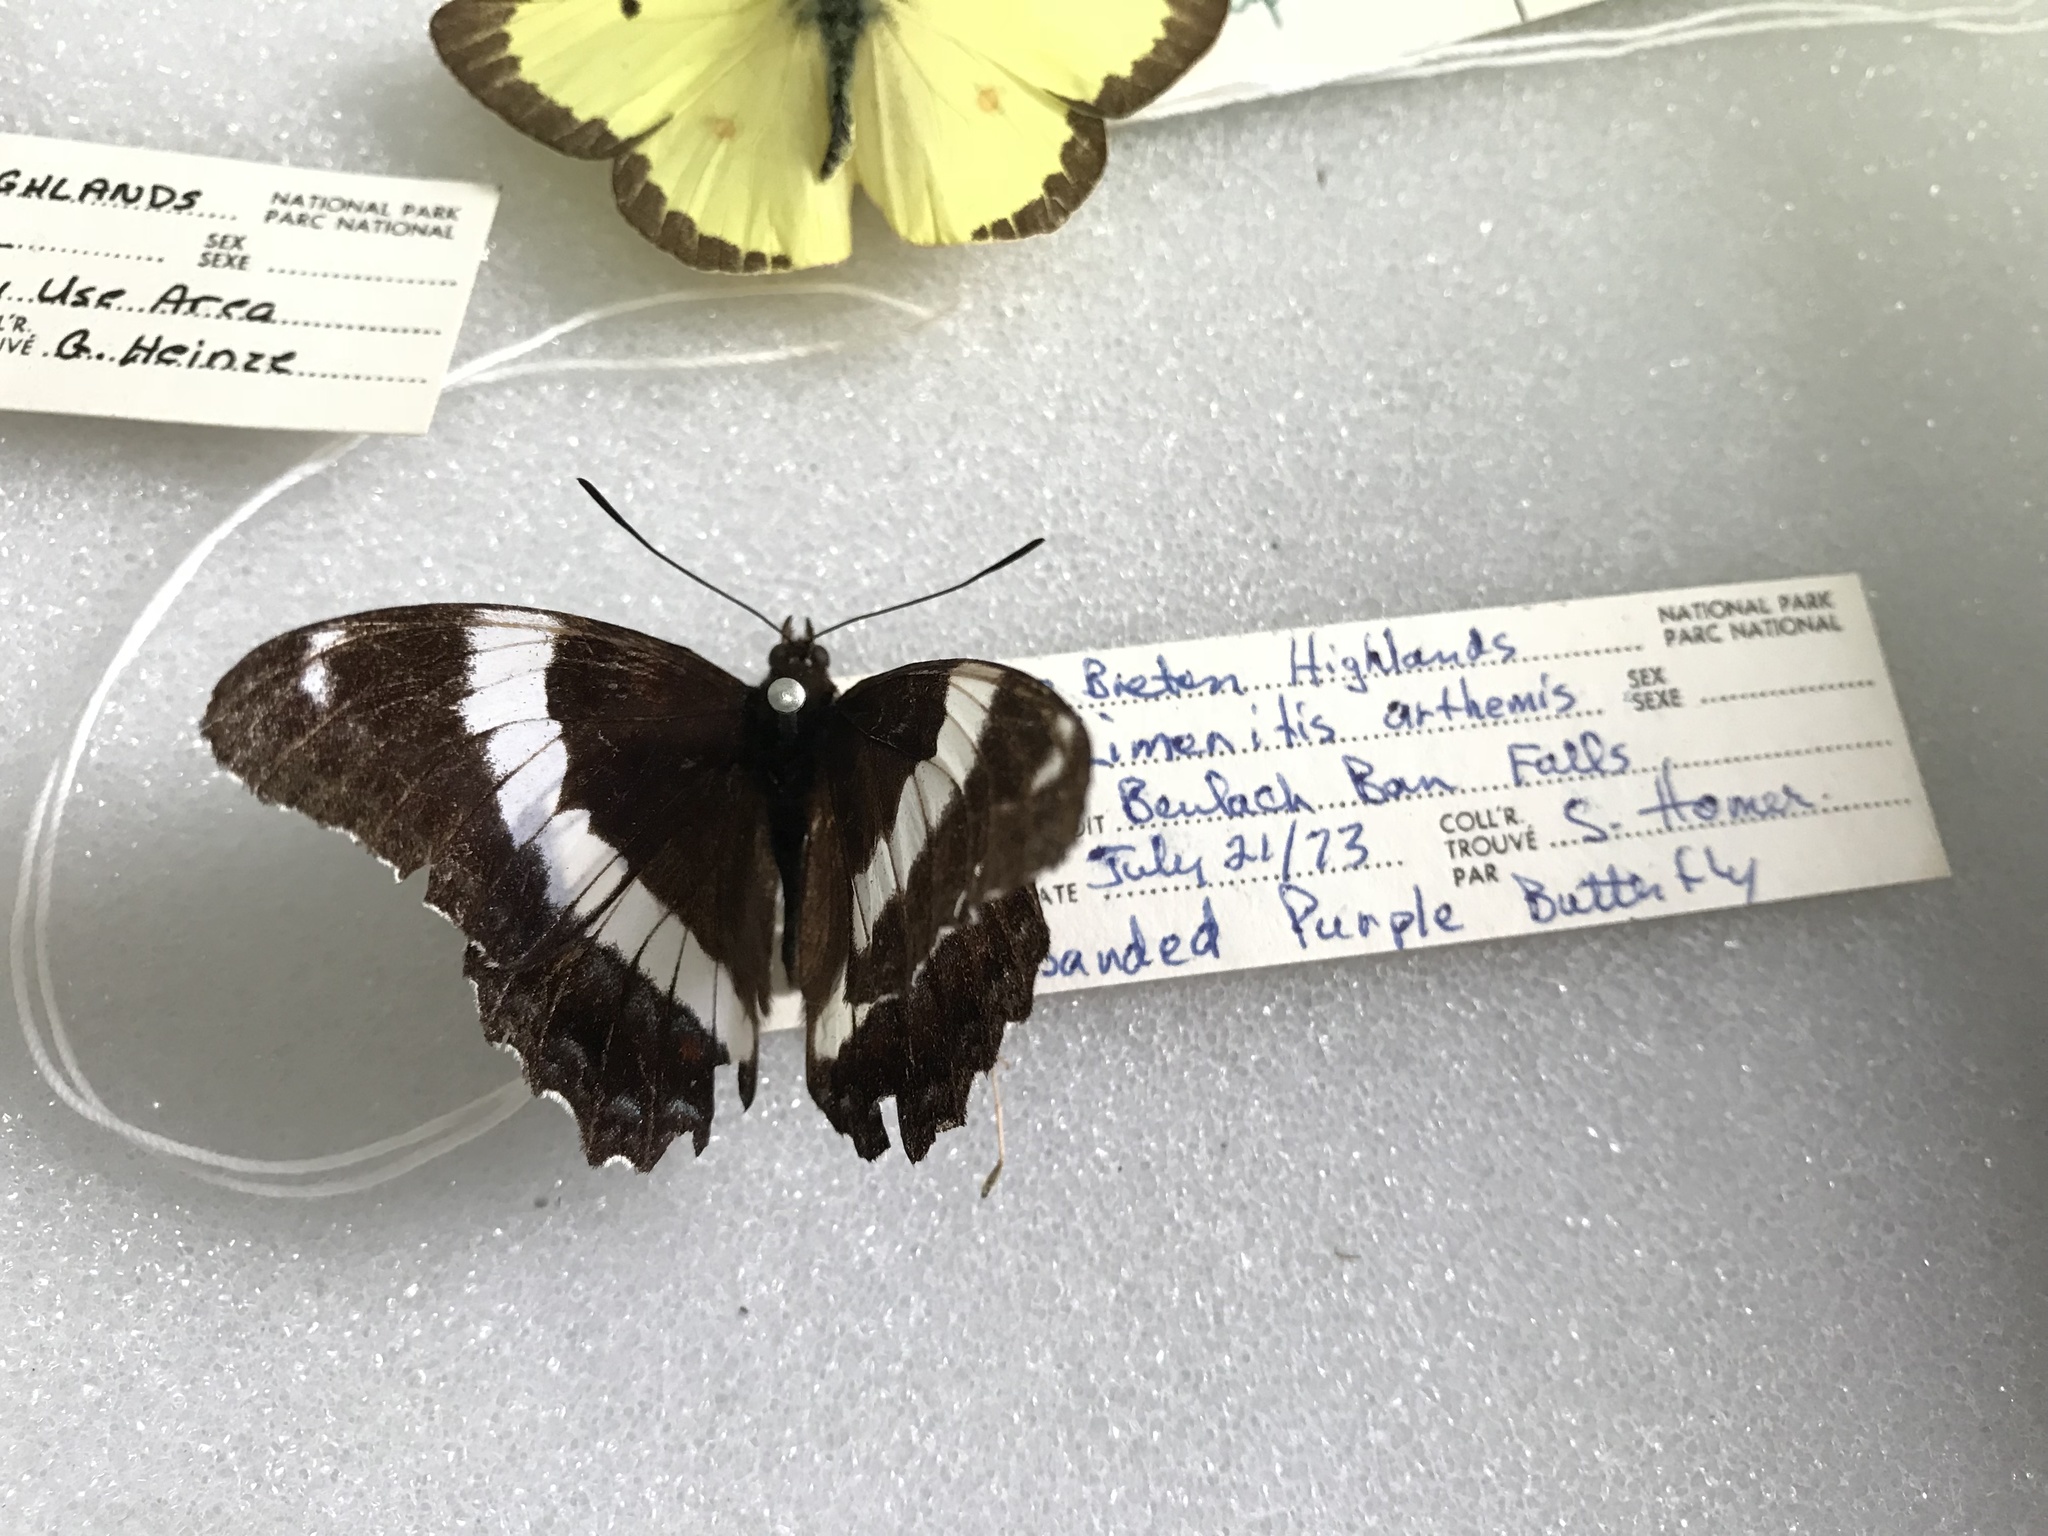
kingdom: Animalia
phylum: Arthropoda
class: Insecta
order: Lepidoptera
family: Nymphalidae
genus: Limenitis
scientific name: Limenitis arthemis
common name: Red-spotted admiral
